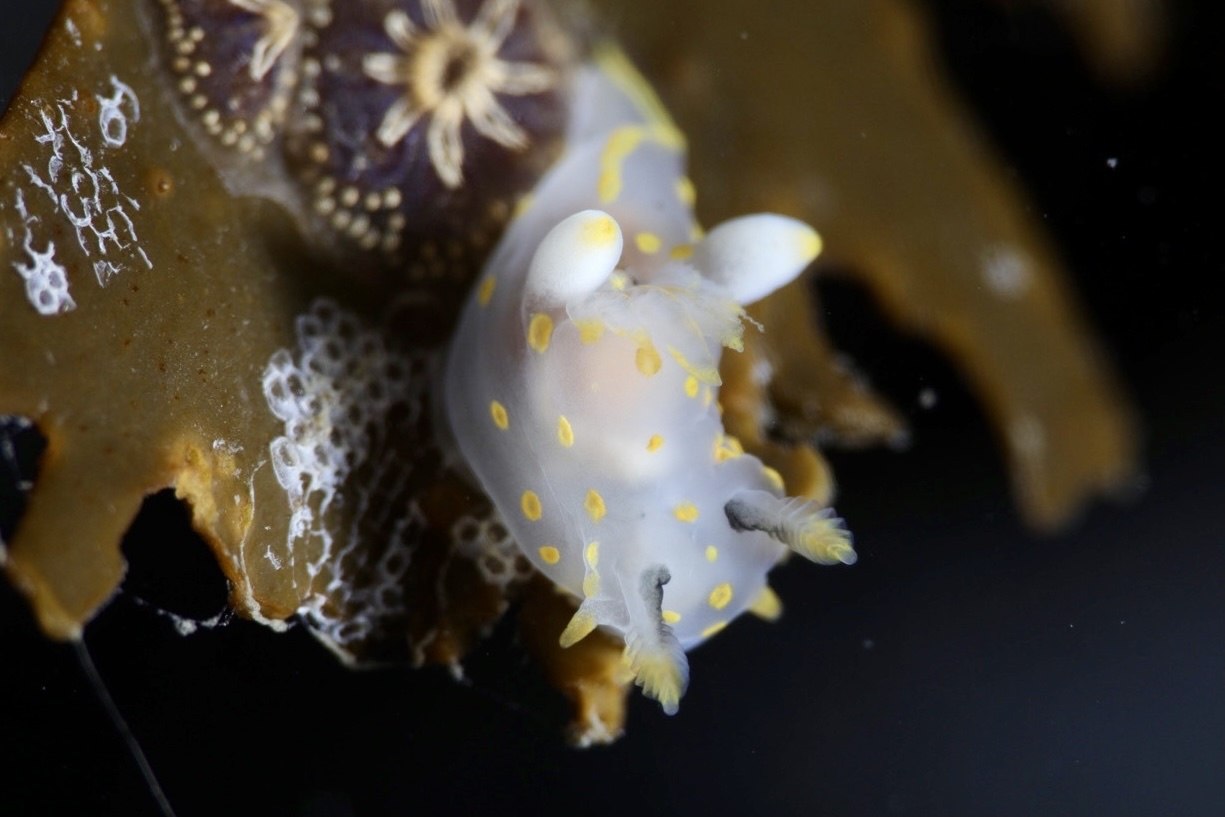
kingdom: Animalia
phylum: Mollusca
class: Gastropoda
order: Nudibranchia
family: Polyceridae
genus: Polycera
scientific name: Polycera quadrilineata
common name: Four-striped polycera
